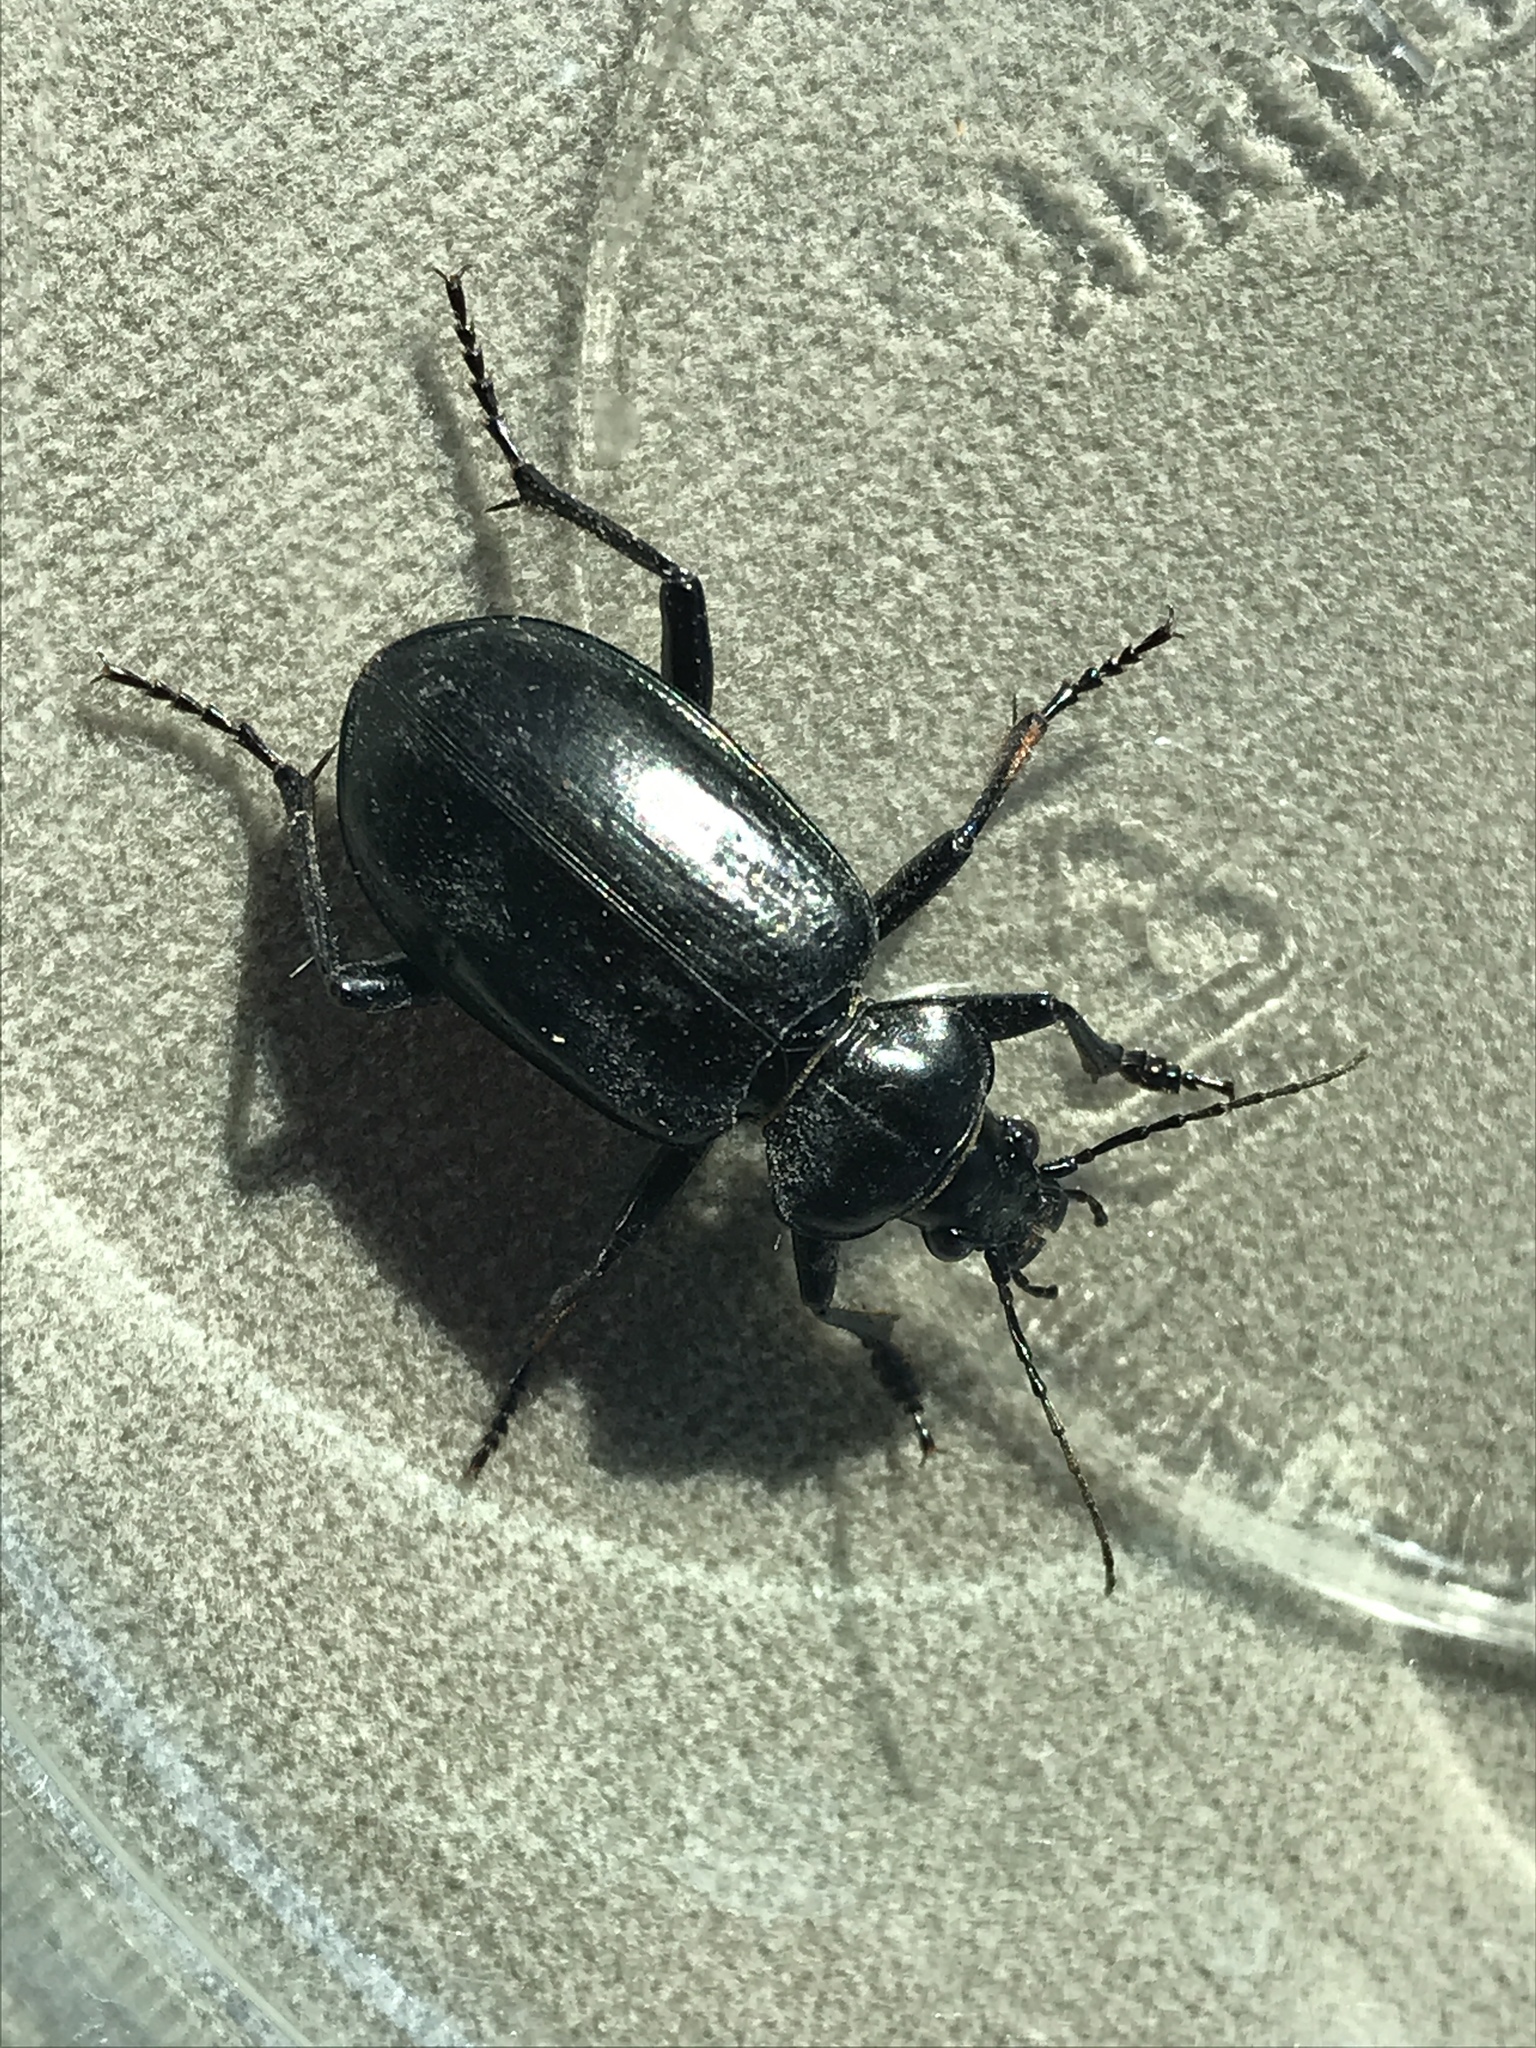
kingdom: Animalia
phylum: Arthropoda
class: Insecta
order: Coleoptera
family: Carabidae
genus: Calosoma
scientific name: Calosoma marginale
